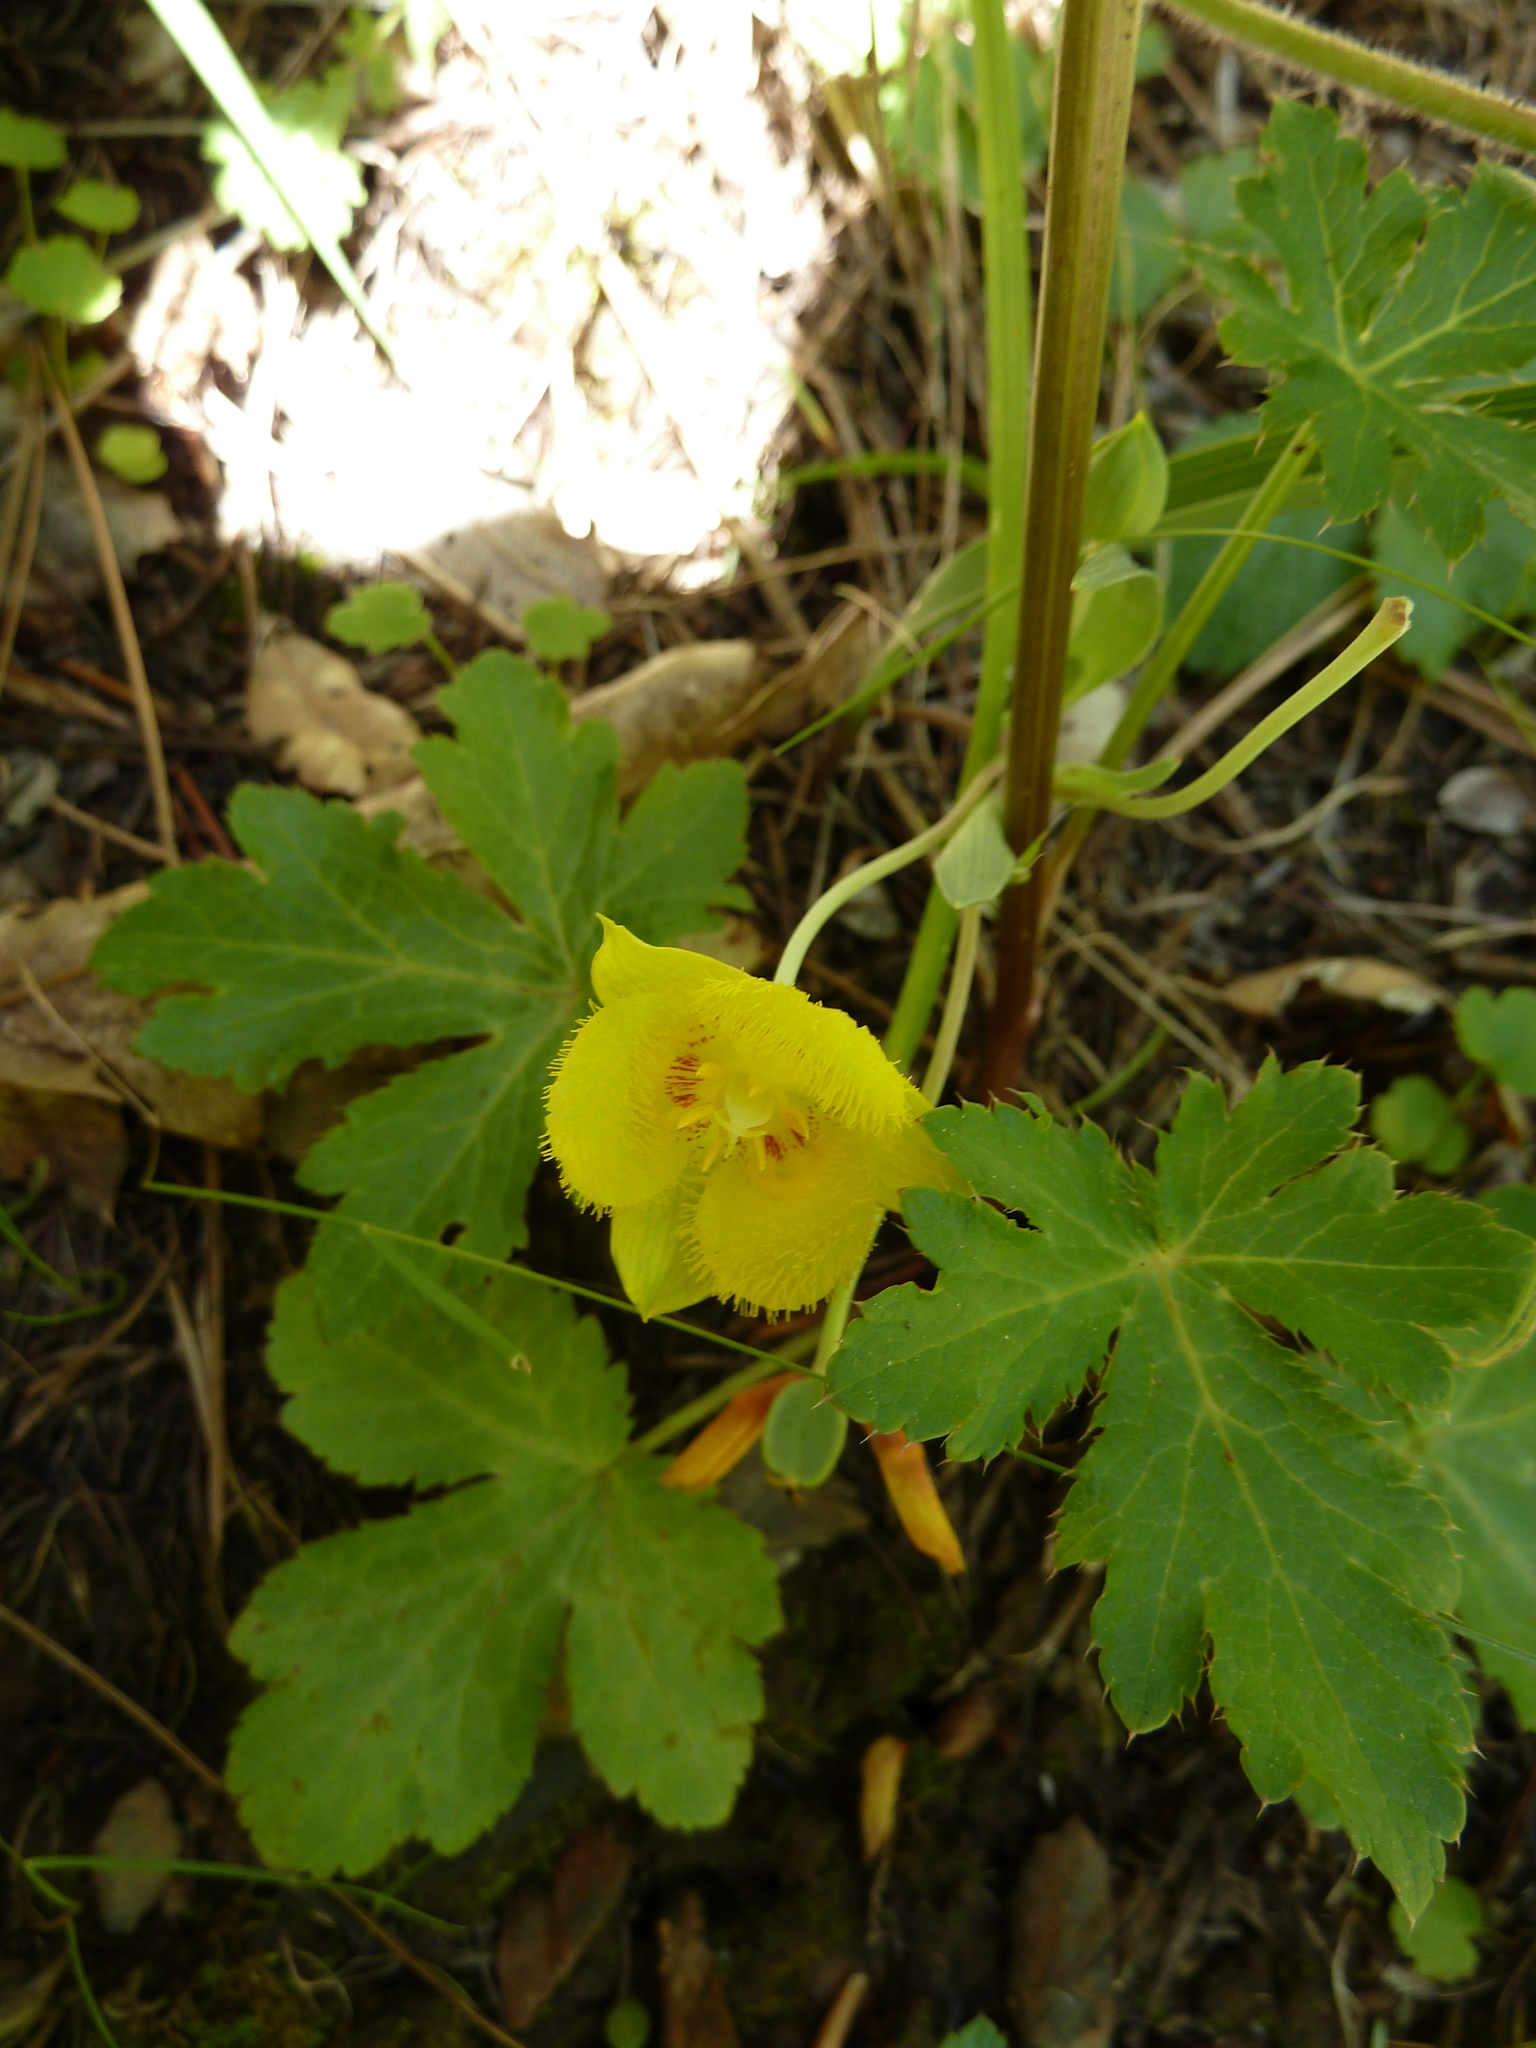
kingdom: Plantae
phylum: Tracheophyta
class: Liliopsida
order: Liliales
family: Liliaceae
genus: Calochortus
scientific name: Calochortus monophyllus
